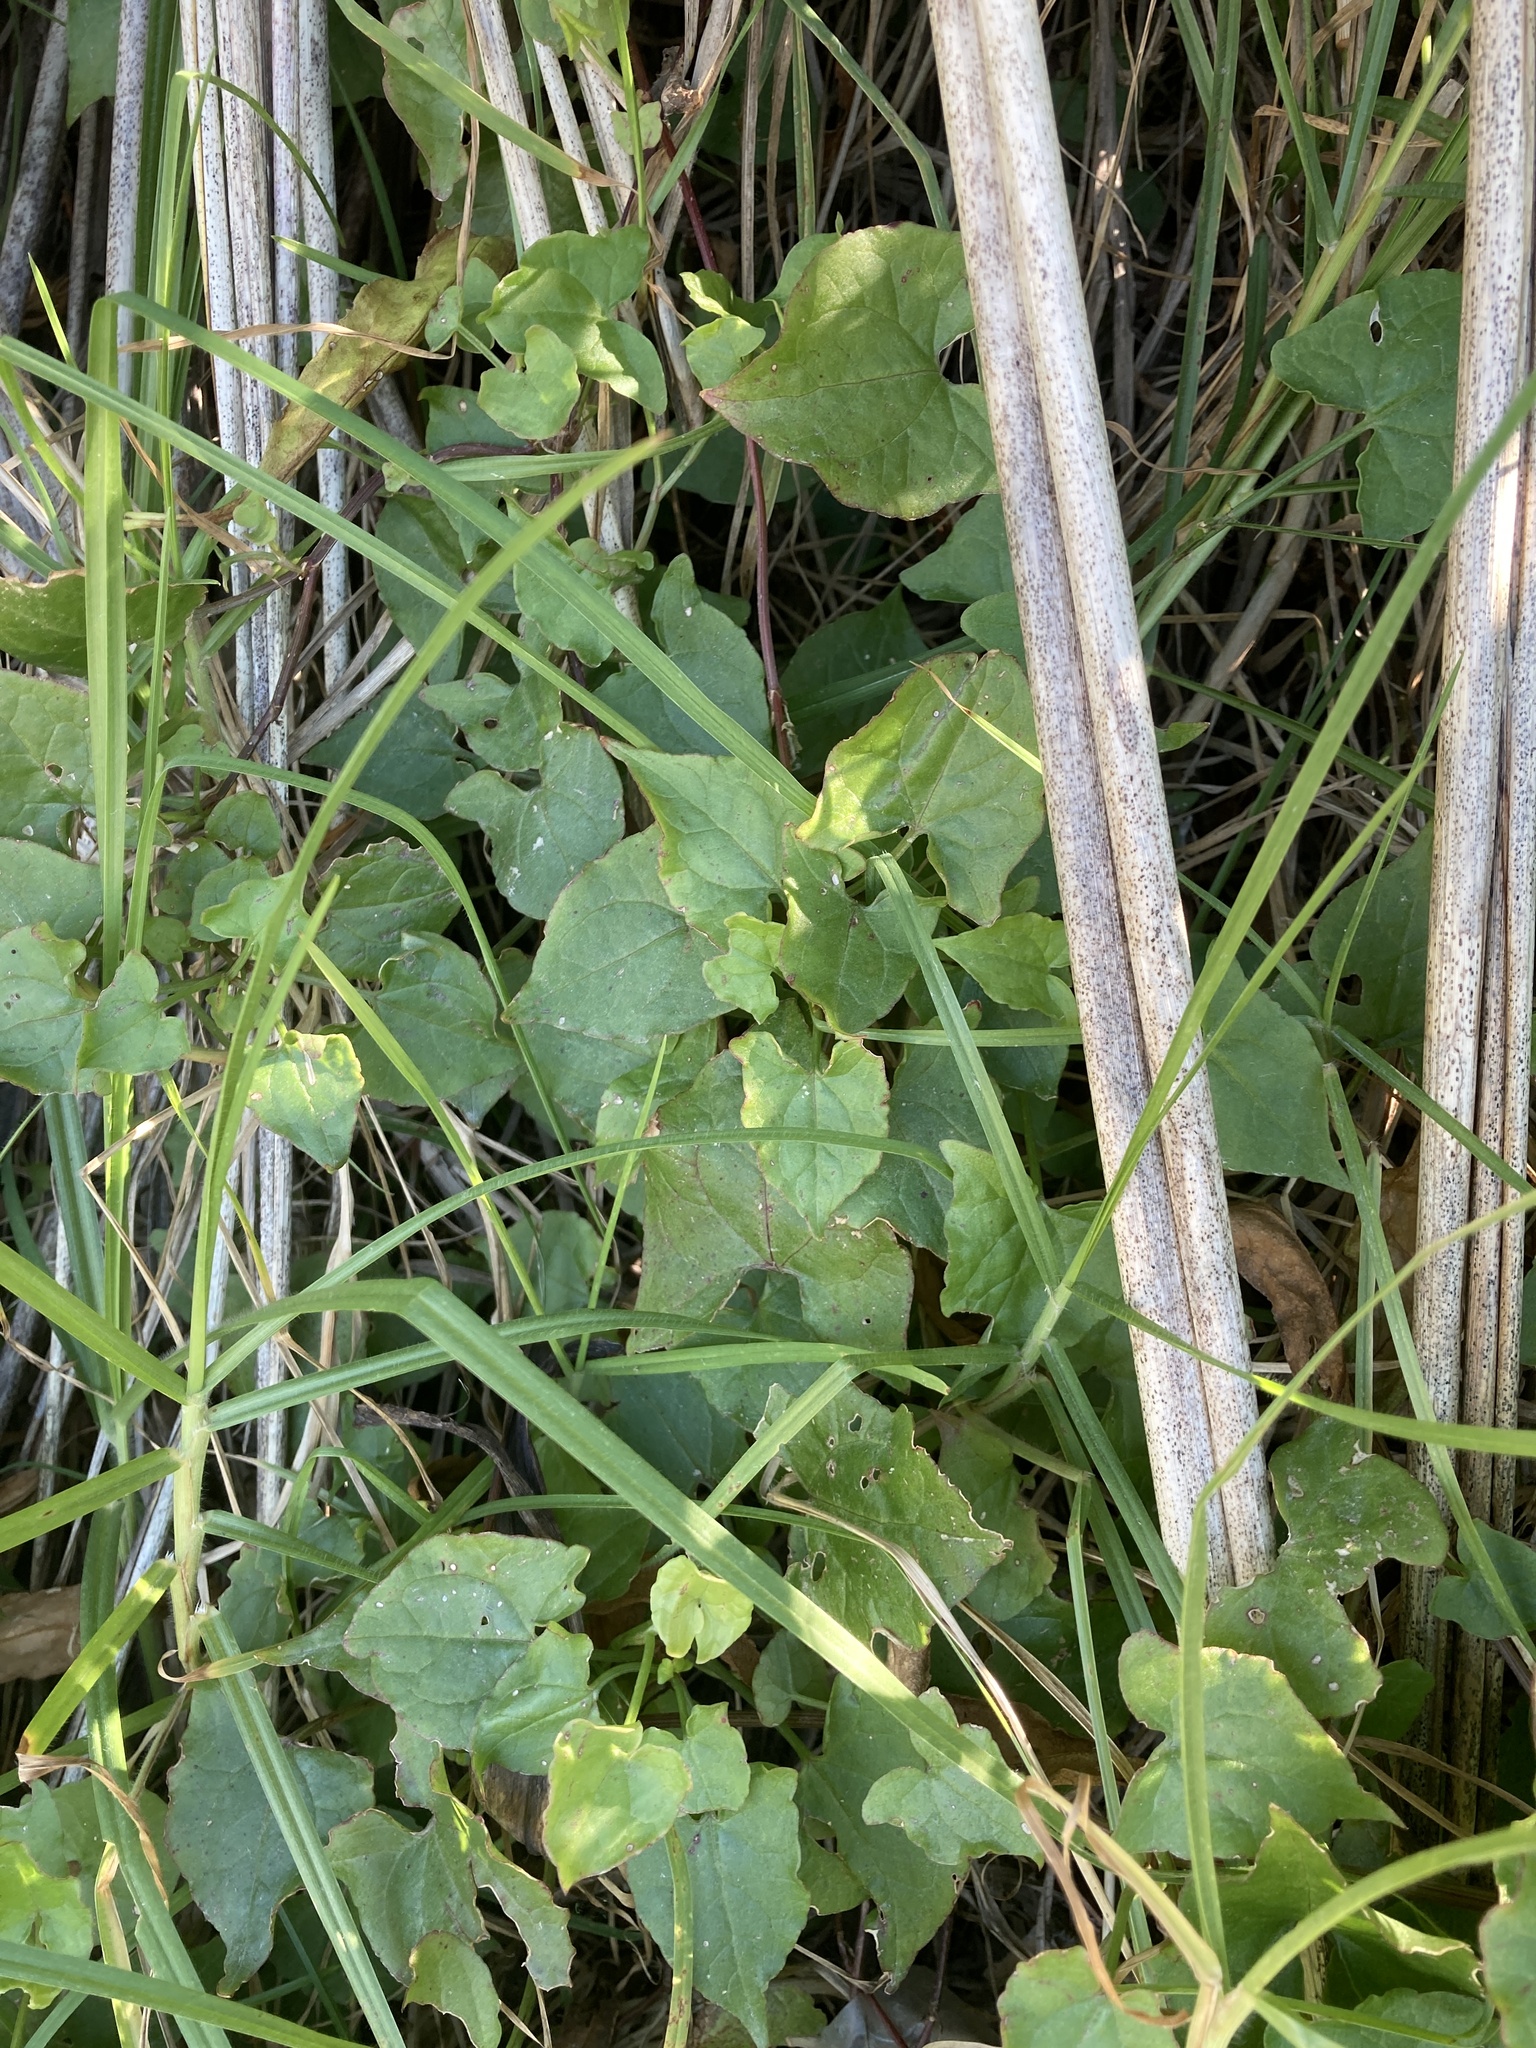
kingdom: Plantae
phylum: Tracheophyta
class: Magnoliopsida
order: Caryophyllales
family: Polygonaceae
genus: Rumex
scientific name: Rumex sagittatus
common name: Climbing dock
